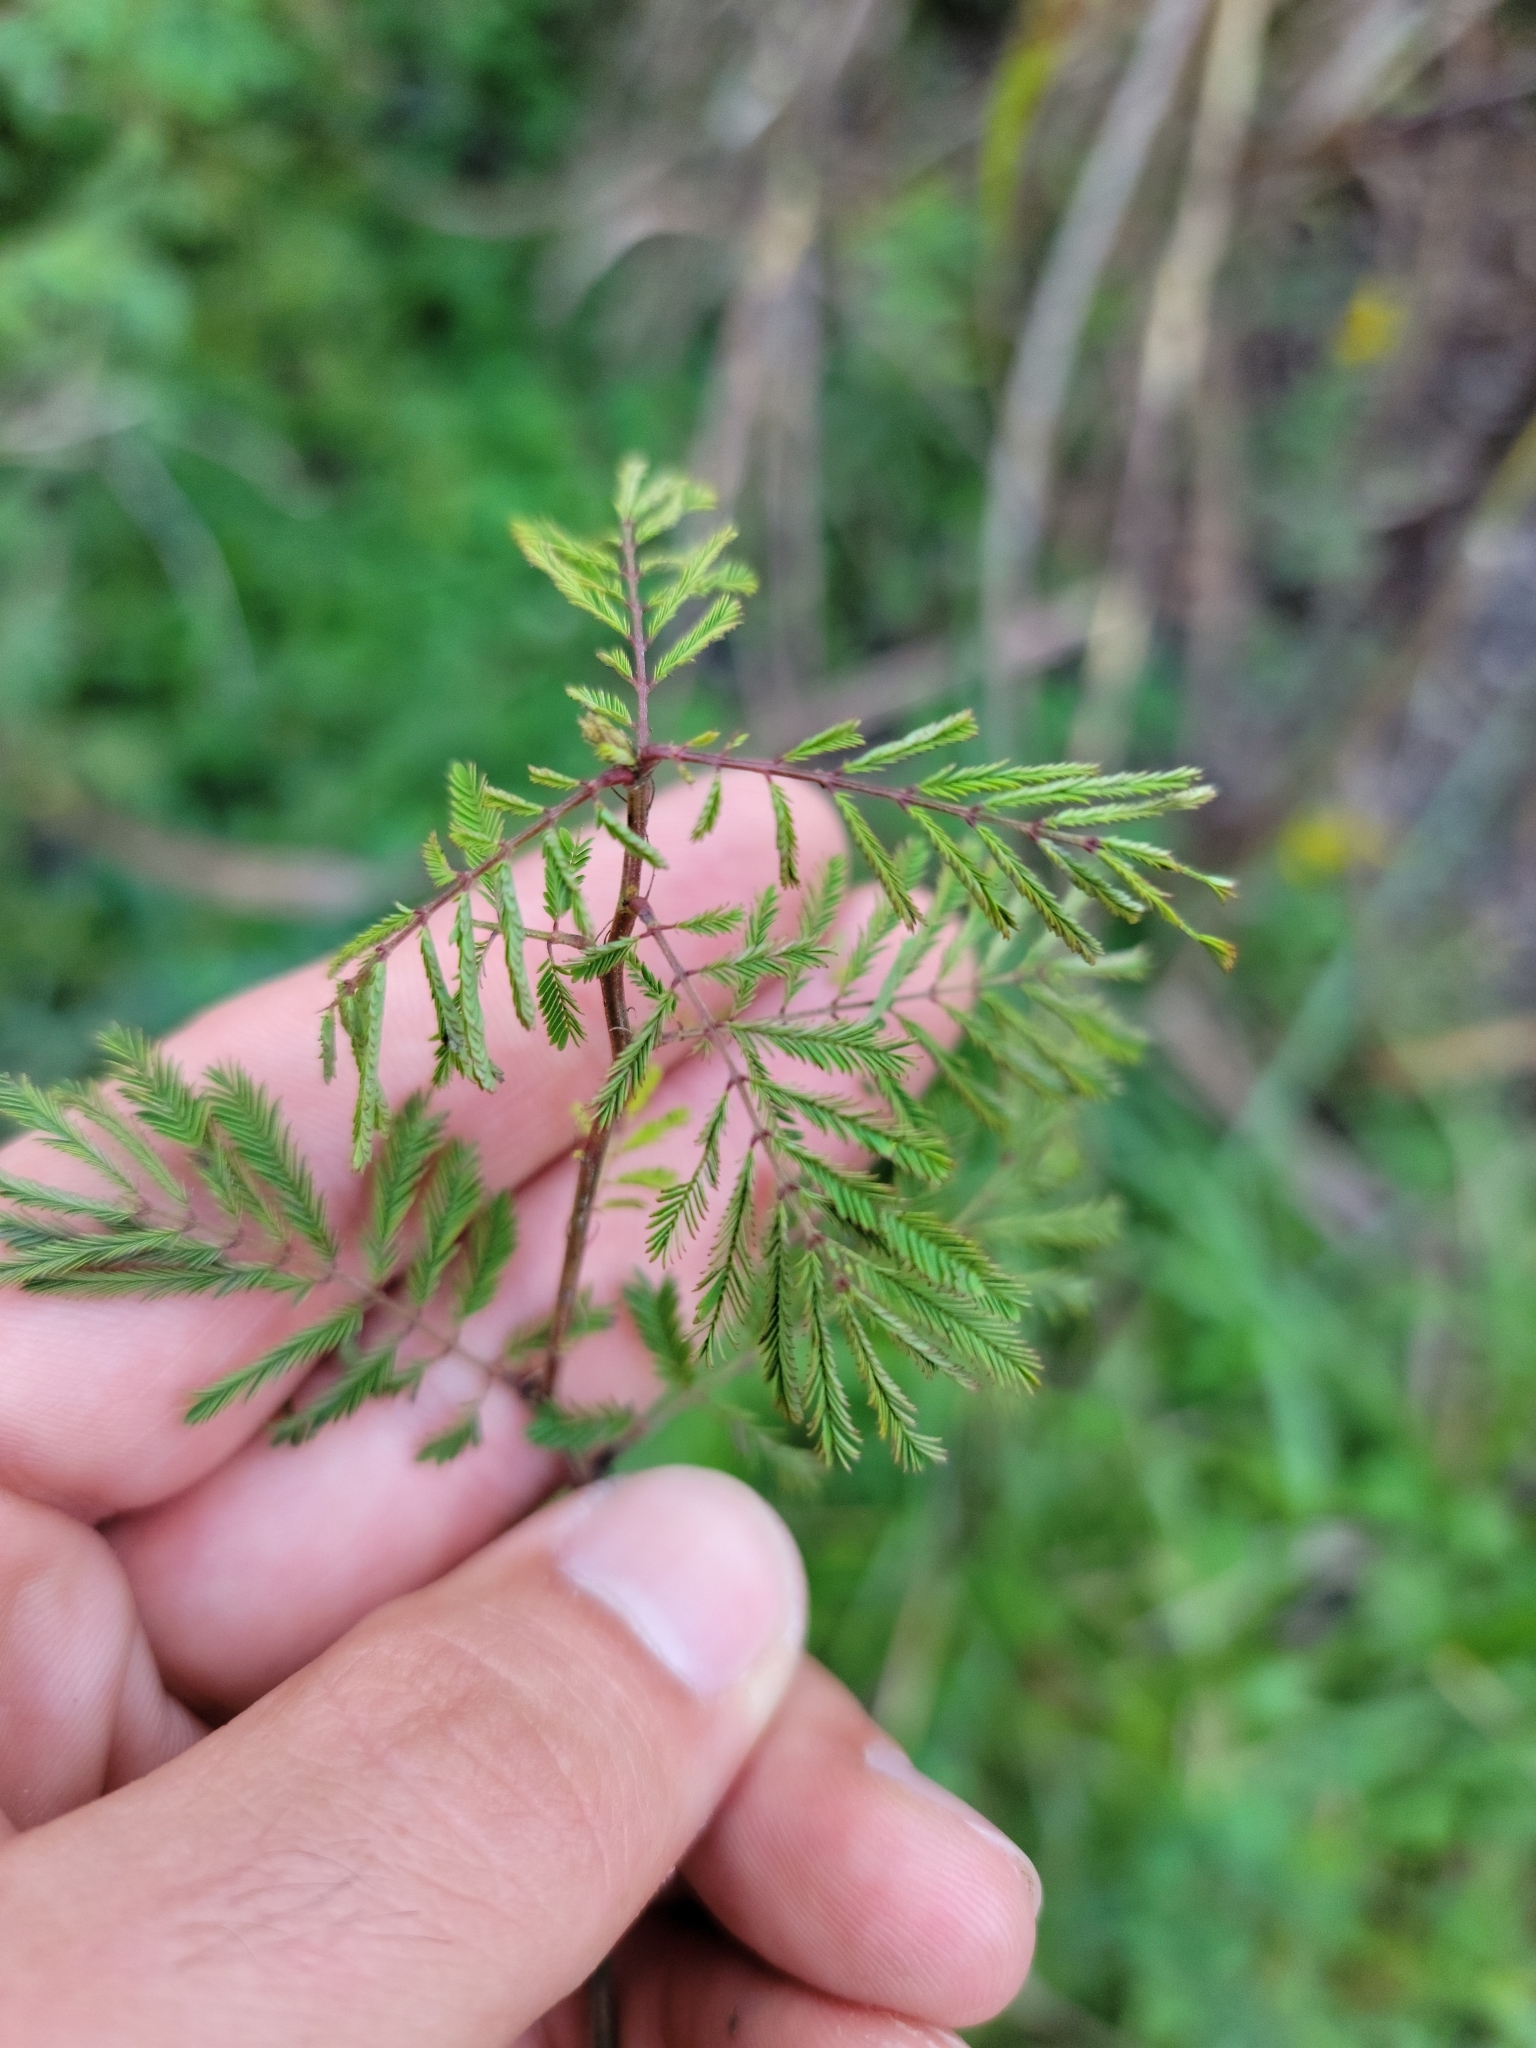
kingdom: Plantae
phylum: Tracheophyta
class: Magnoliopsida
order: Fabales
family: Fabaceae
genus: Desmanthus
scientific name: Desmanthus illinoensis
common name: Illinois bundle-flower
